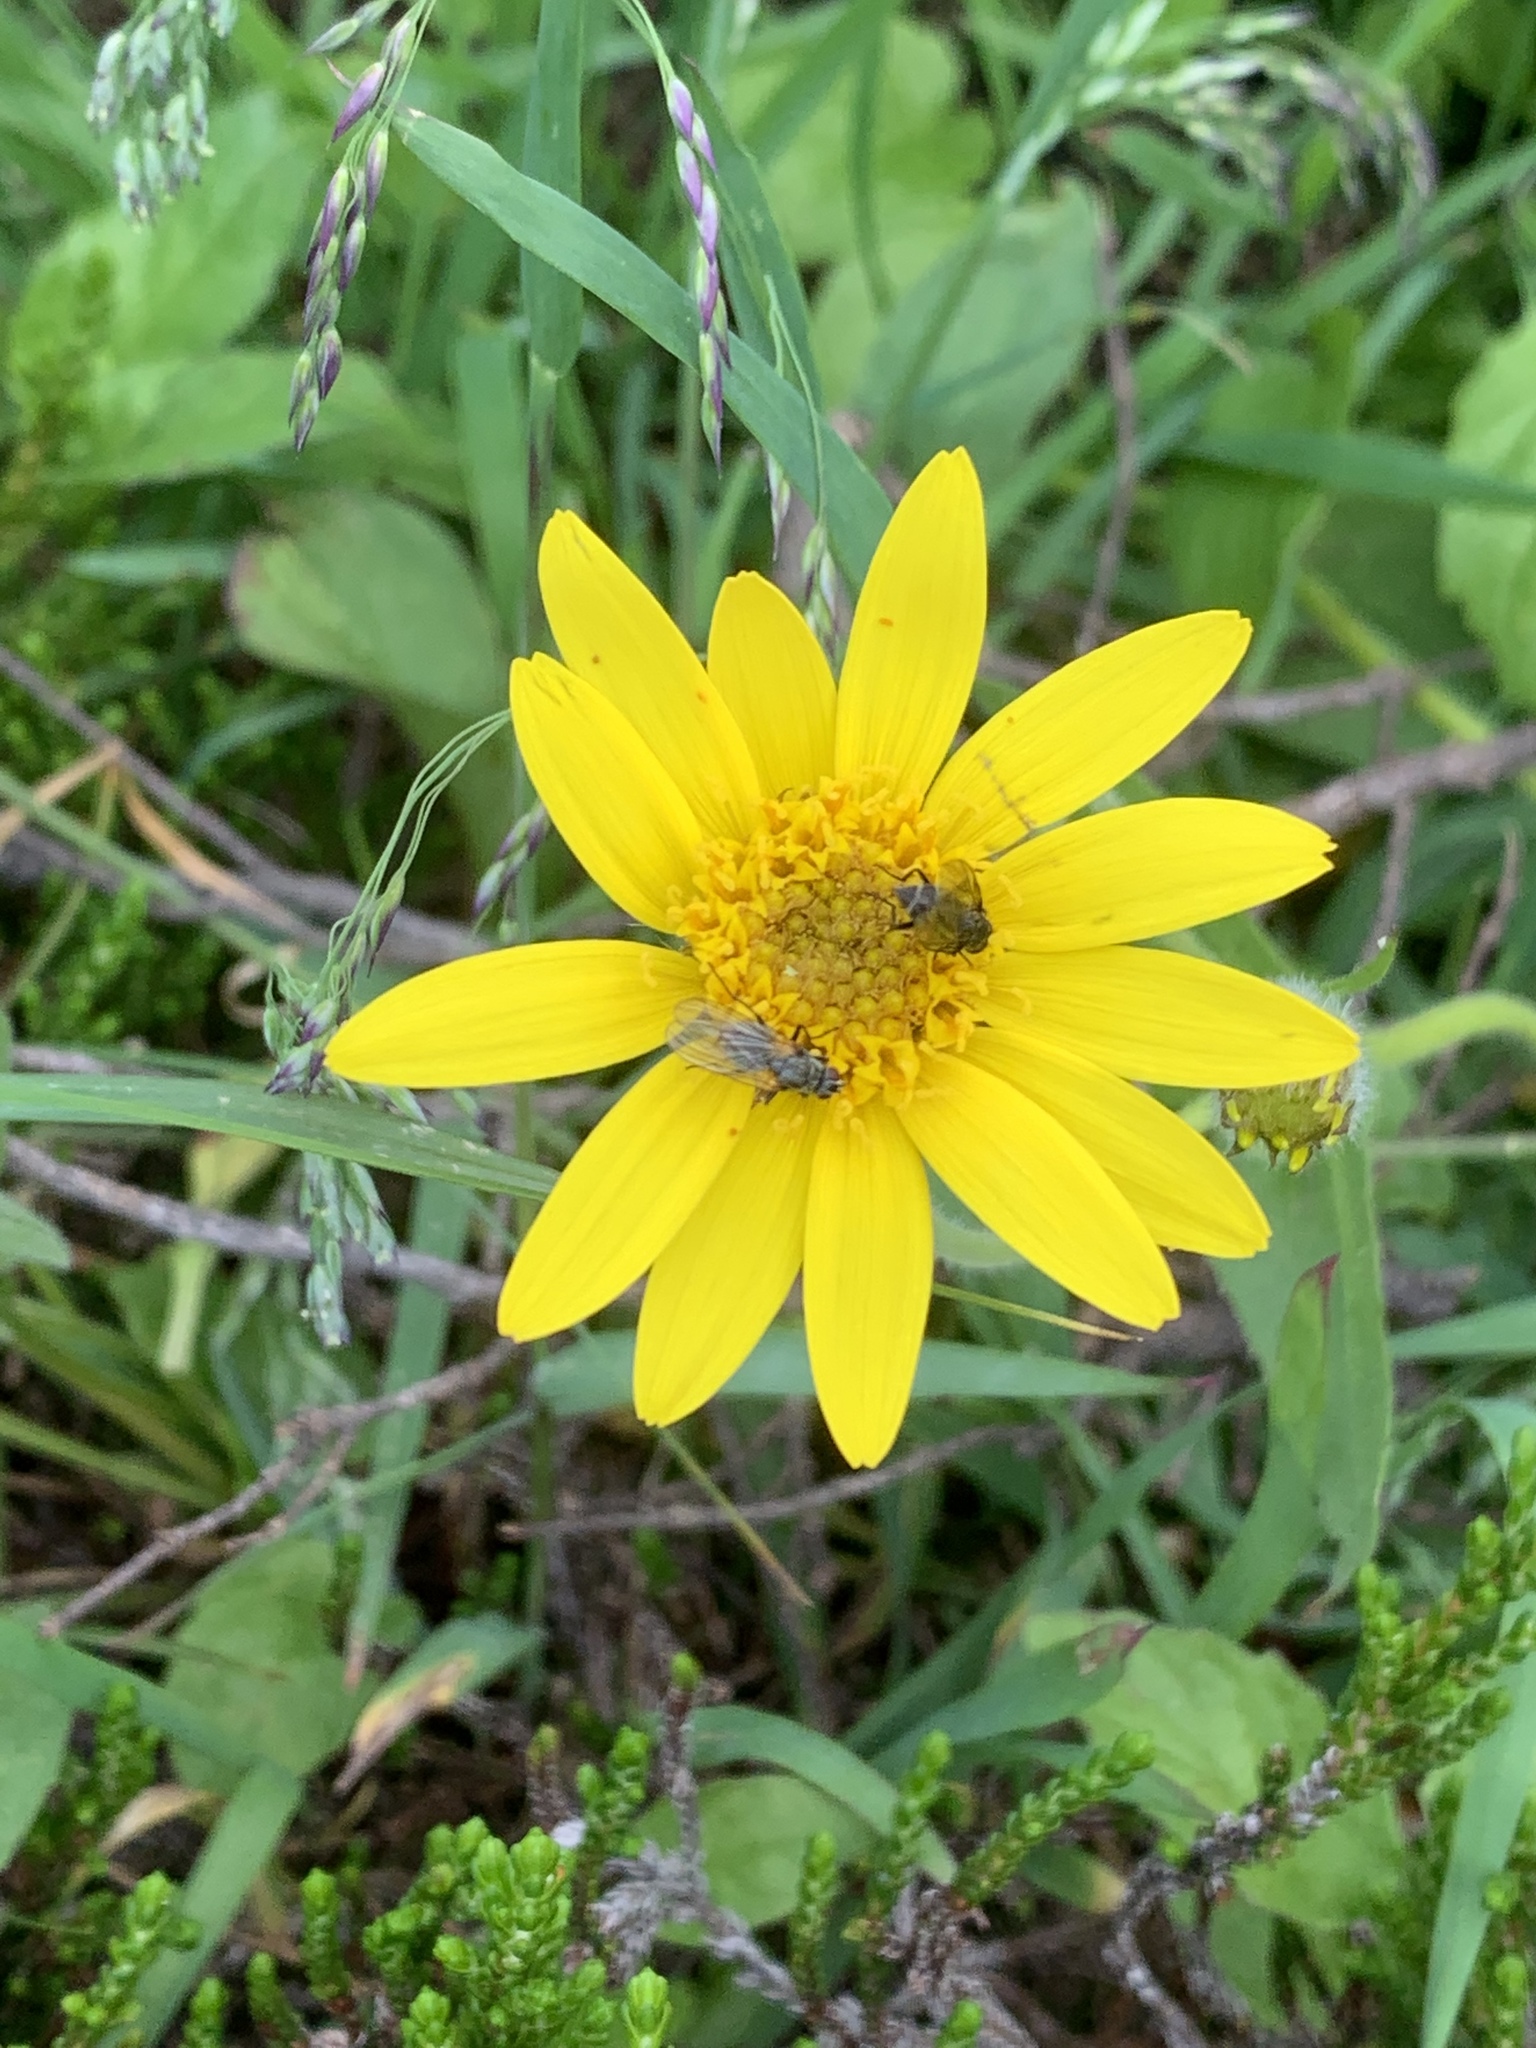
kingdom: Plantae
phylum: Tracheophyta
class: Magnoliopsida
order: Asterales
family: Asteraceae
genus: Arnica
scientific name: Arnica latifolia
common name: Arnica
